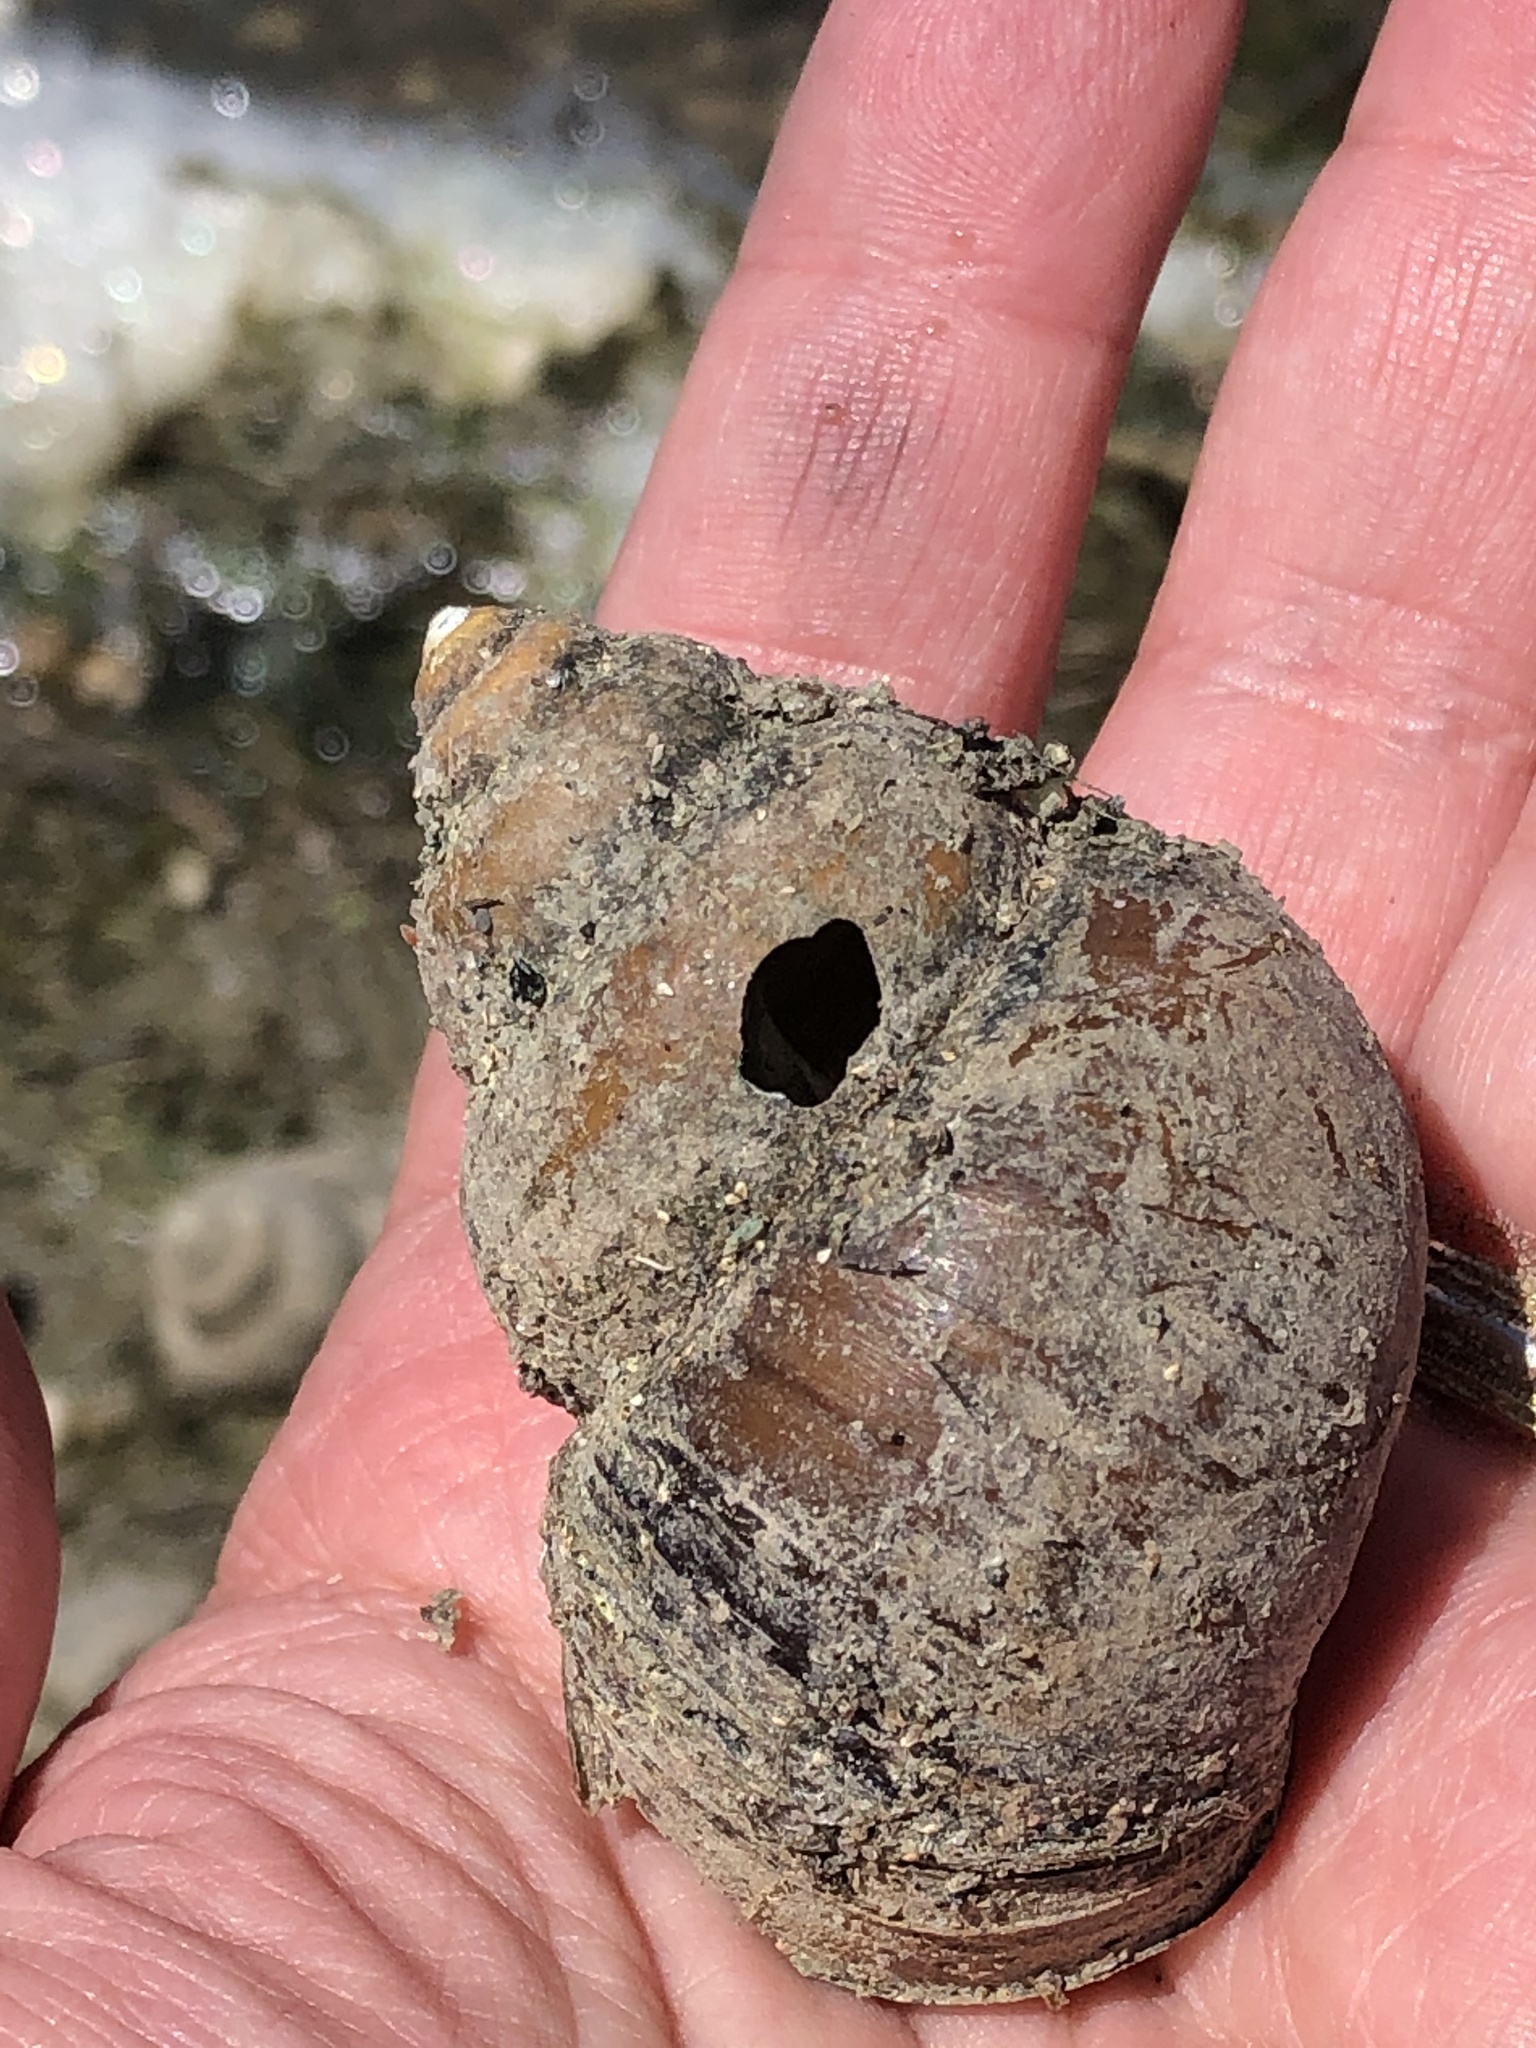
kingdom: Animalia
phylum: Mollusca
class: Gastropoda
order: Architaenioglossa
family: Viviparidae
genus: Cipangopaludina
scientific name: Cipangopaludina chinensis
